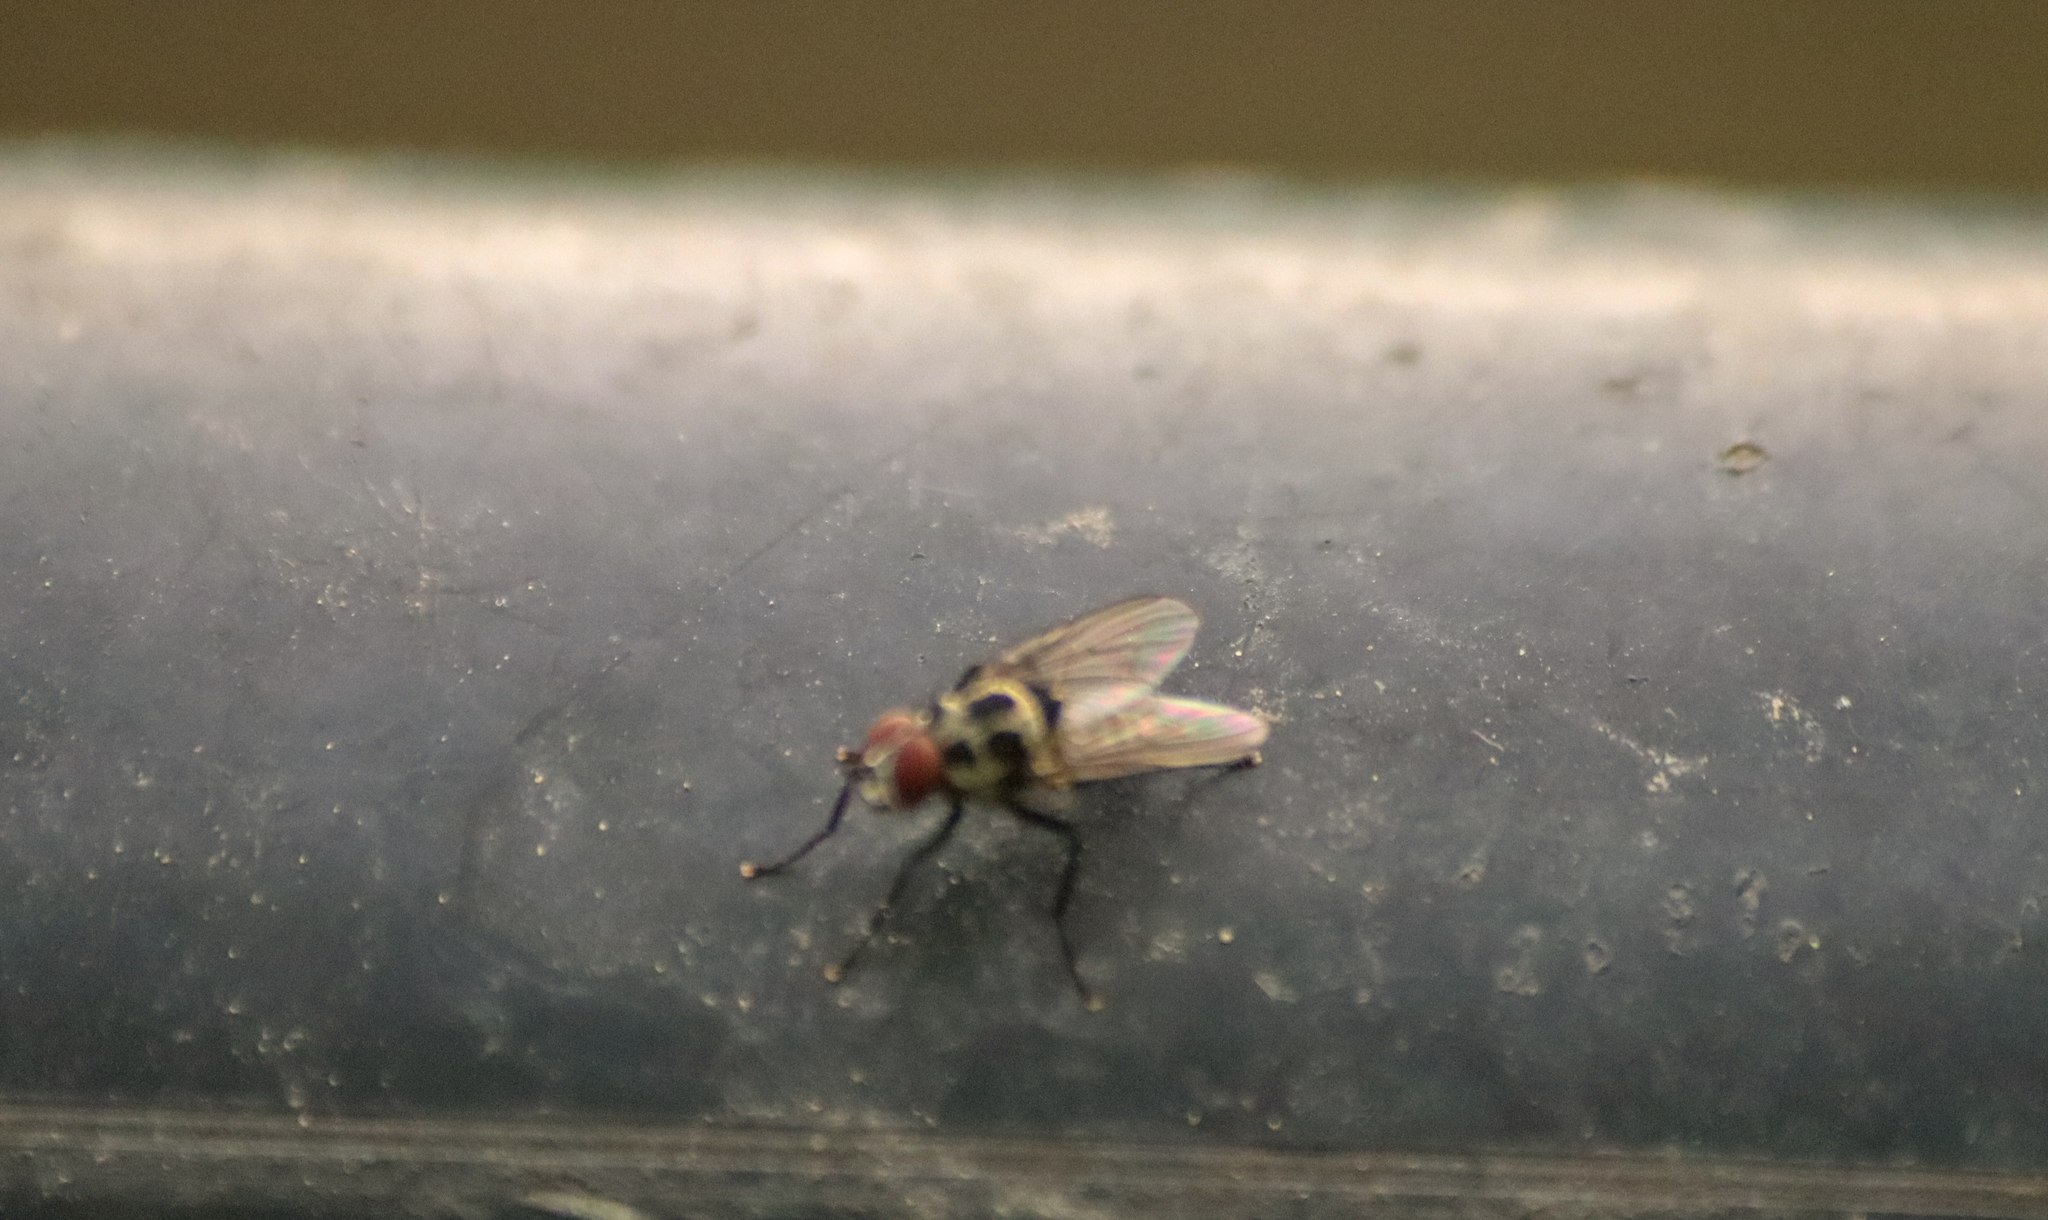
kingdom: Animalia
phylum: Arthropoda
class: Insecta
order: Diptera
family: Anthomyiidae
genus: Anthomyia
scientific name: Anthomyia pluvialis
